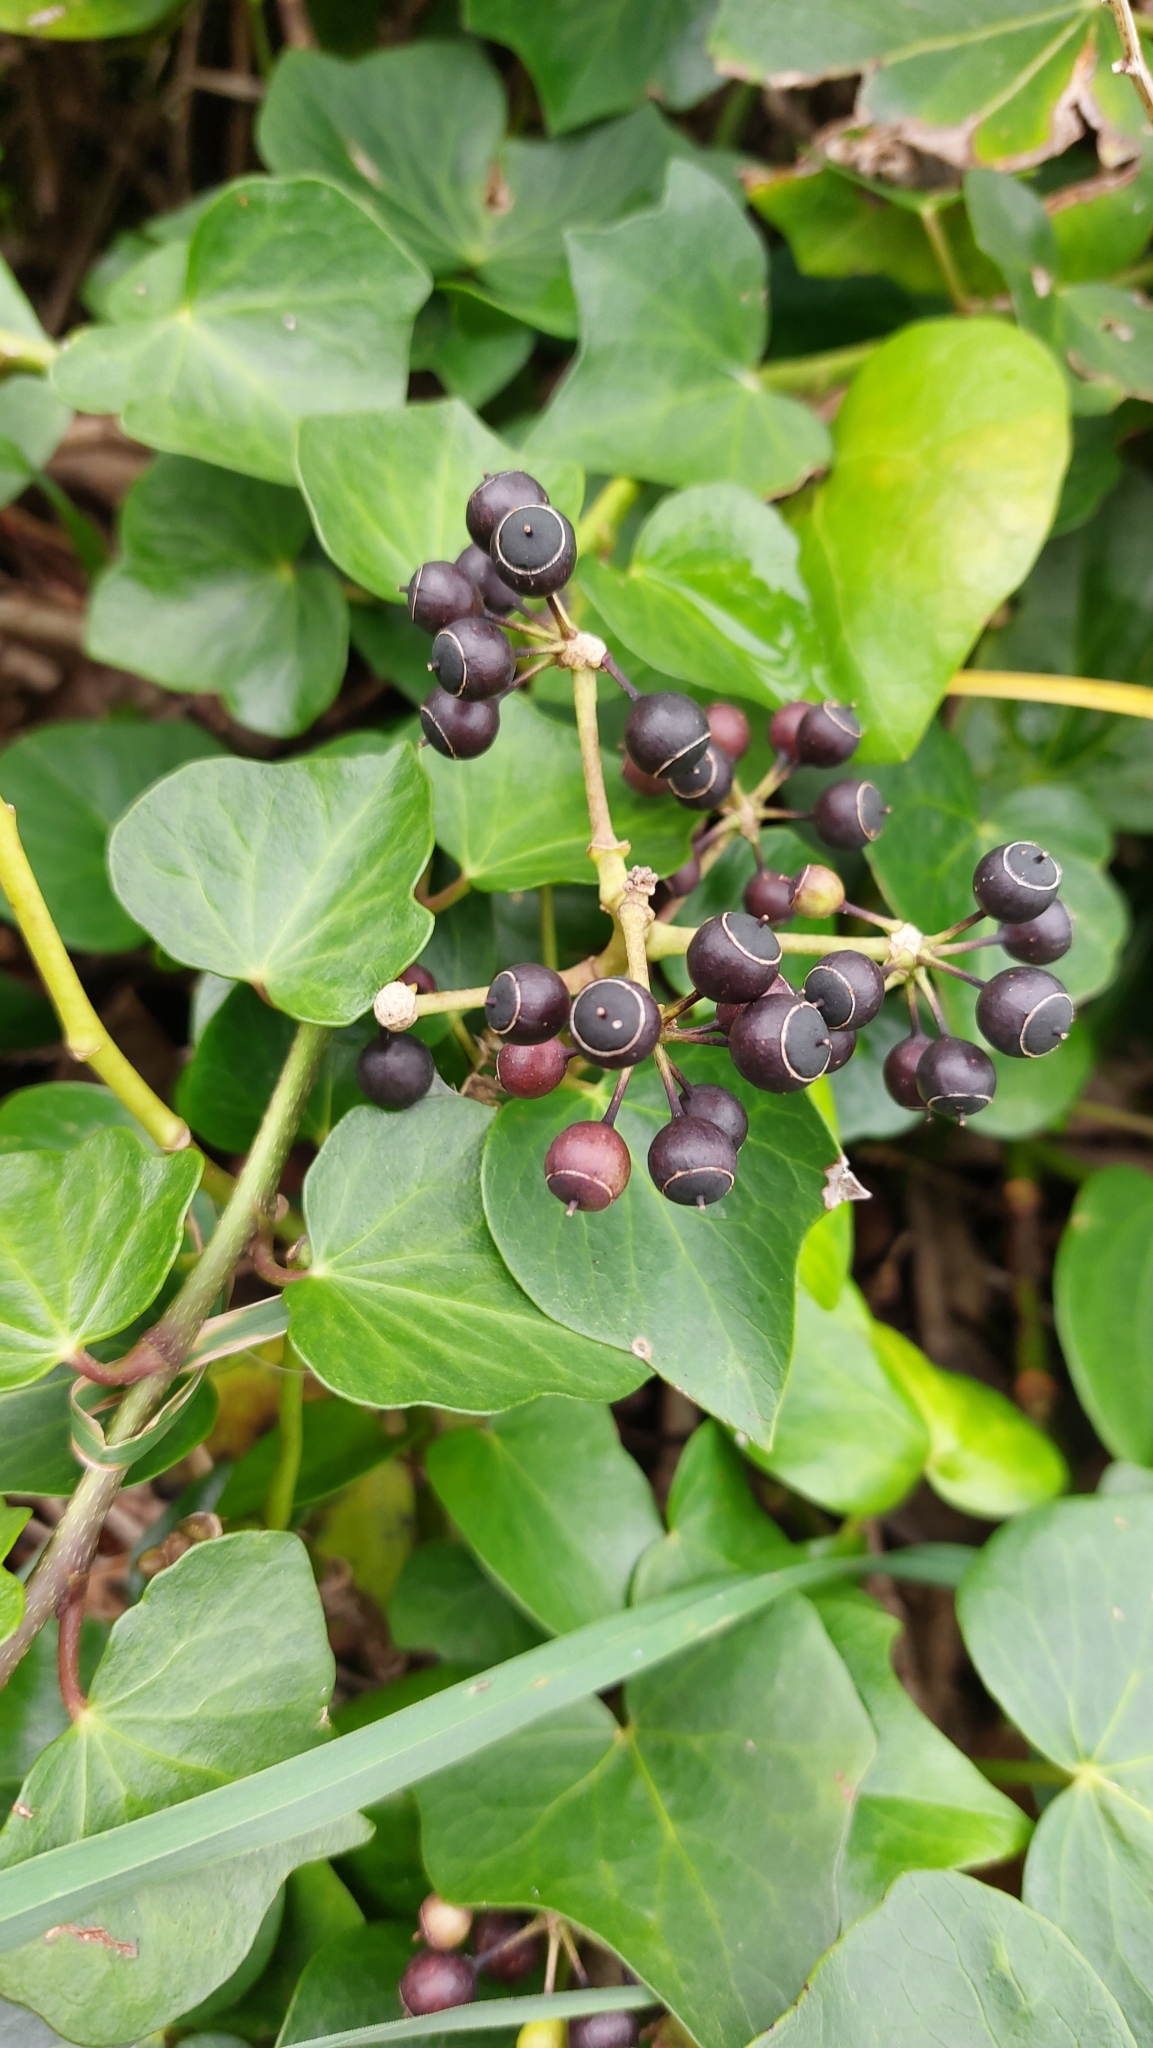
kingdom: Plantae
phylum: Tracheophyta
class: Magnoliopsida
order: Apiales
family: Araliaceae
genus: Hedera
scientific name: Hedera azorica
